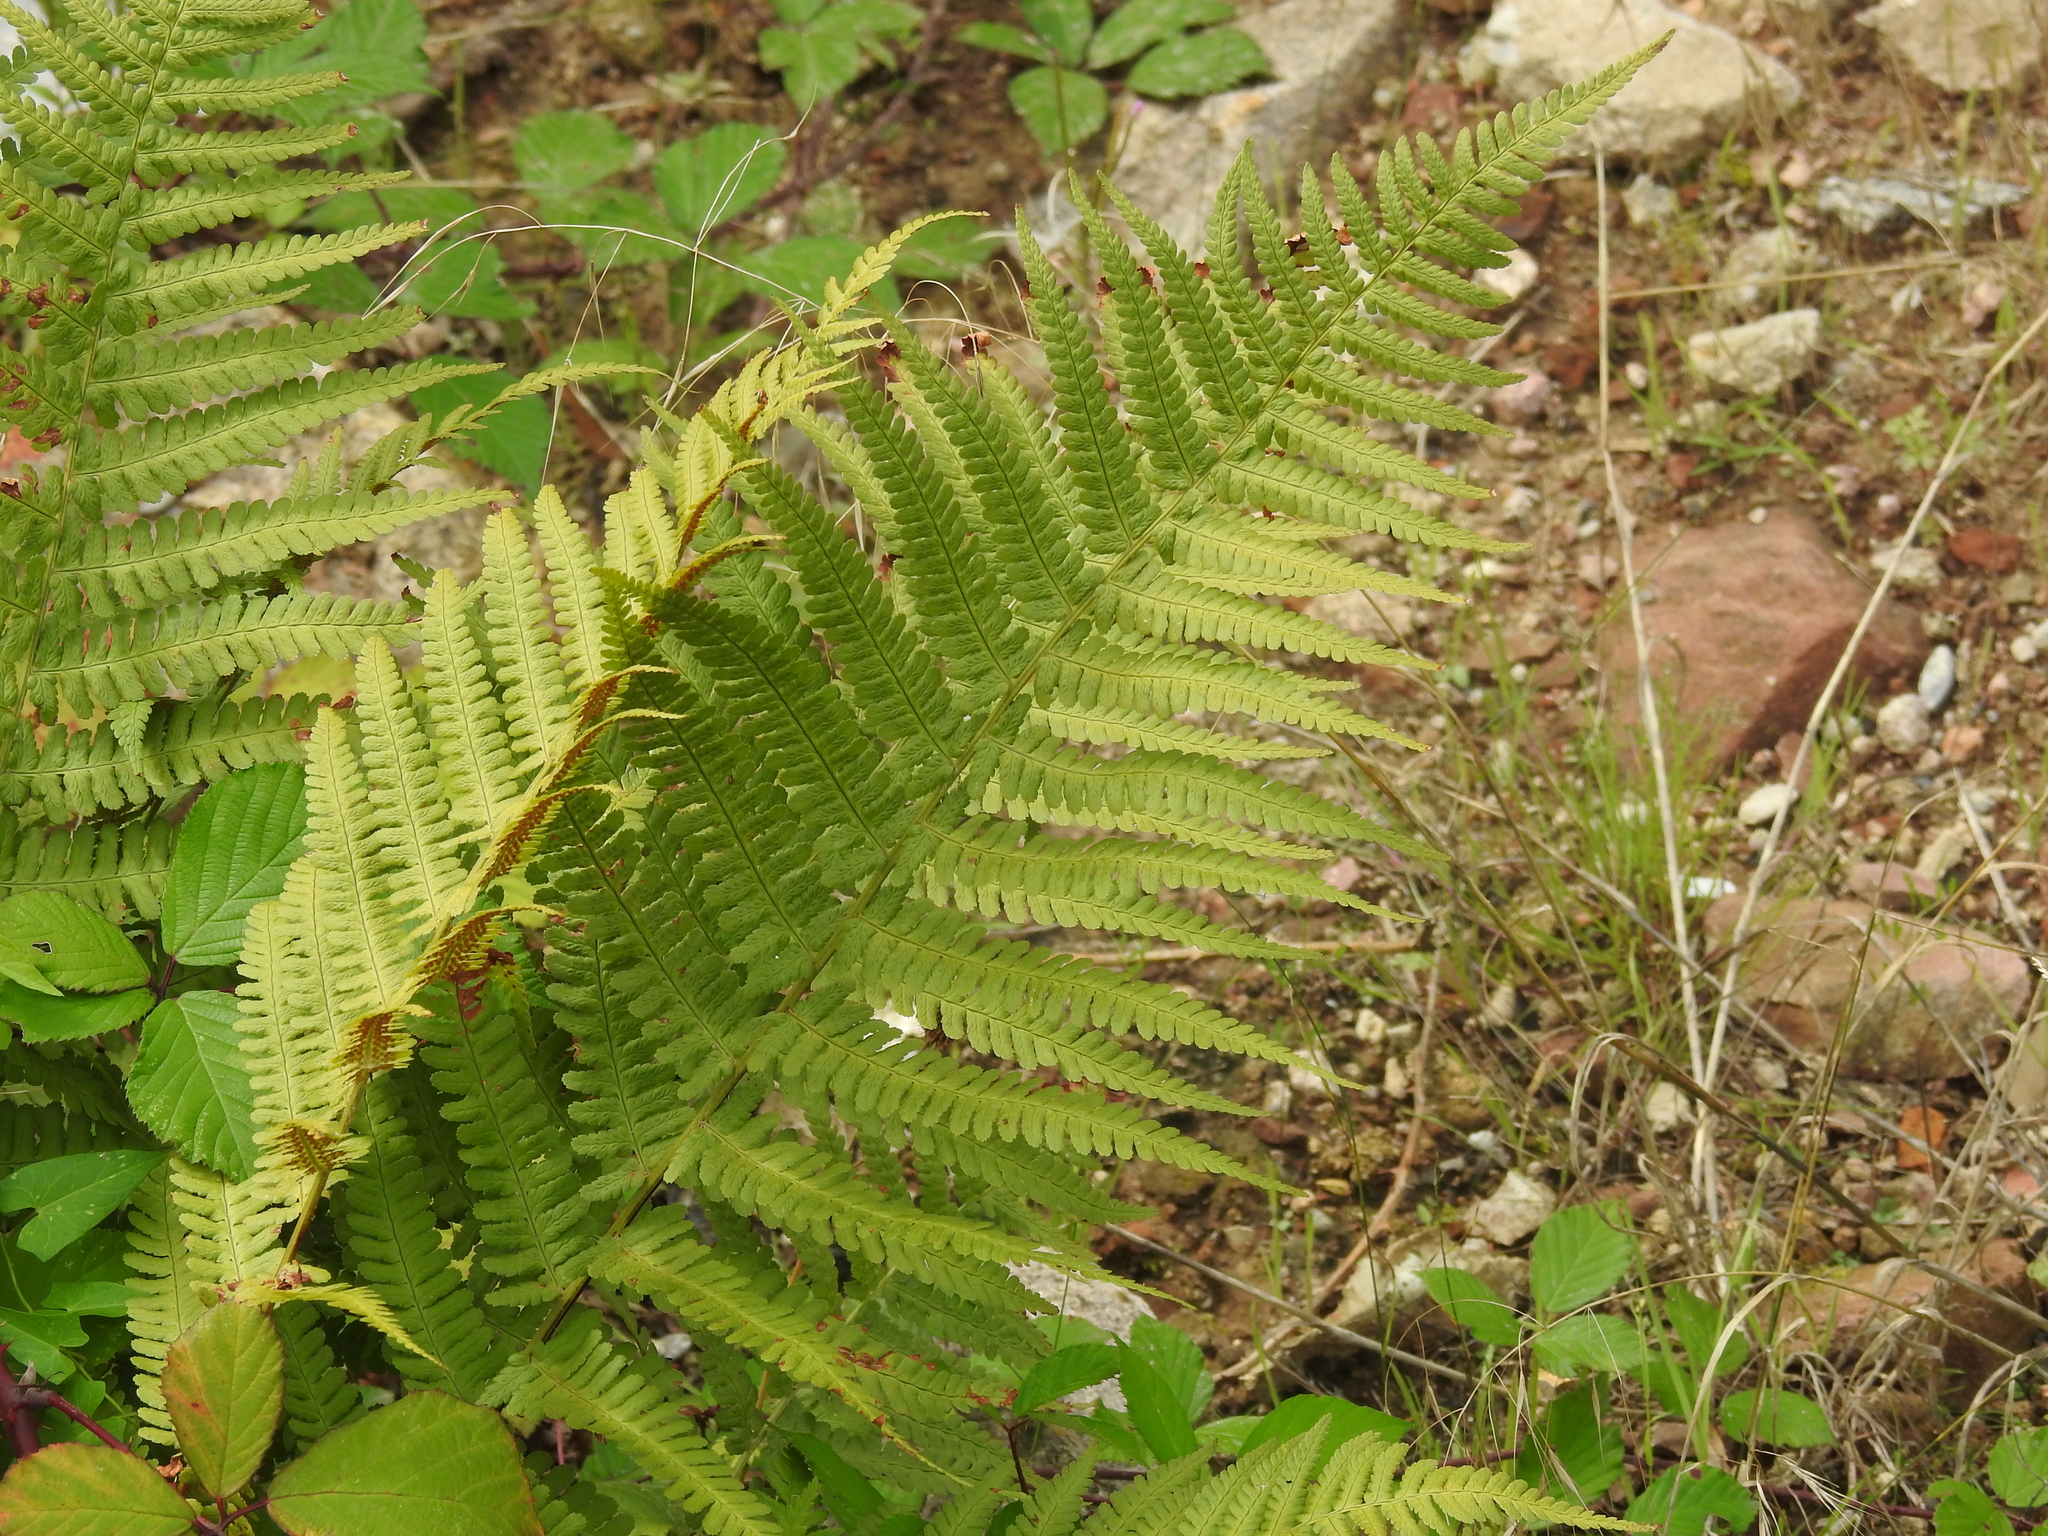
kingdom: Plantae
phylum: Tracheophyta
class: Polypodiopsida
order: Polypodiales
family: Dryopteridaceae
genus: Dryopteris
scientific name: Dryopteris filix-mas
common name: Male fern
